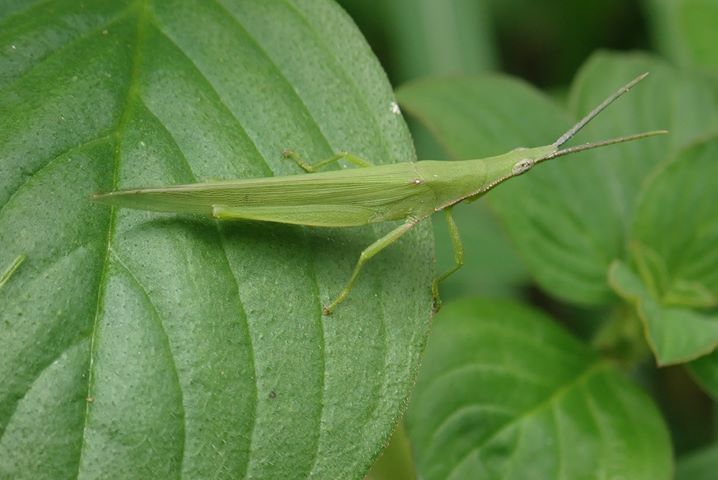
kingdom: Animalia
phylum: Arthropoda
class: Insecta
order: Orthoptera
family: Pyrgomorphidae
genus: Atractomorpha
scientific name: Atractomorpha sinensis
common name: Pinkwinged grasshopper
